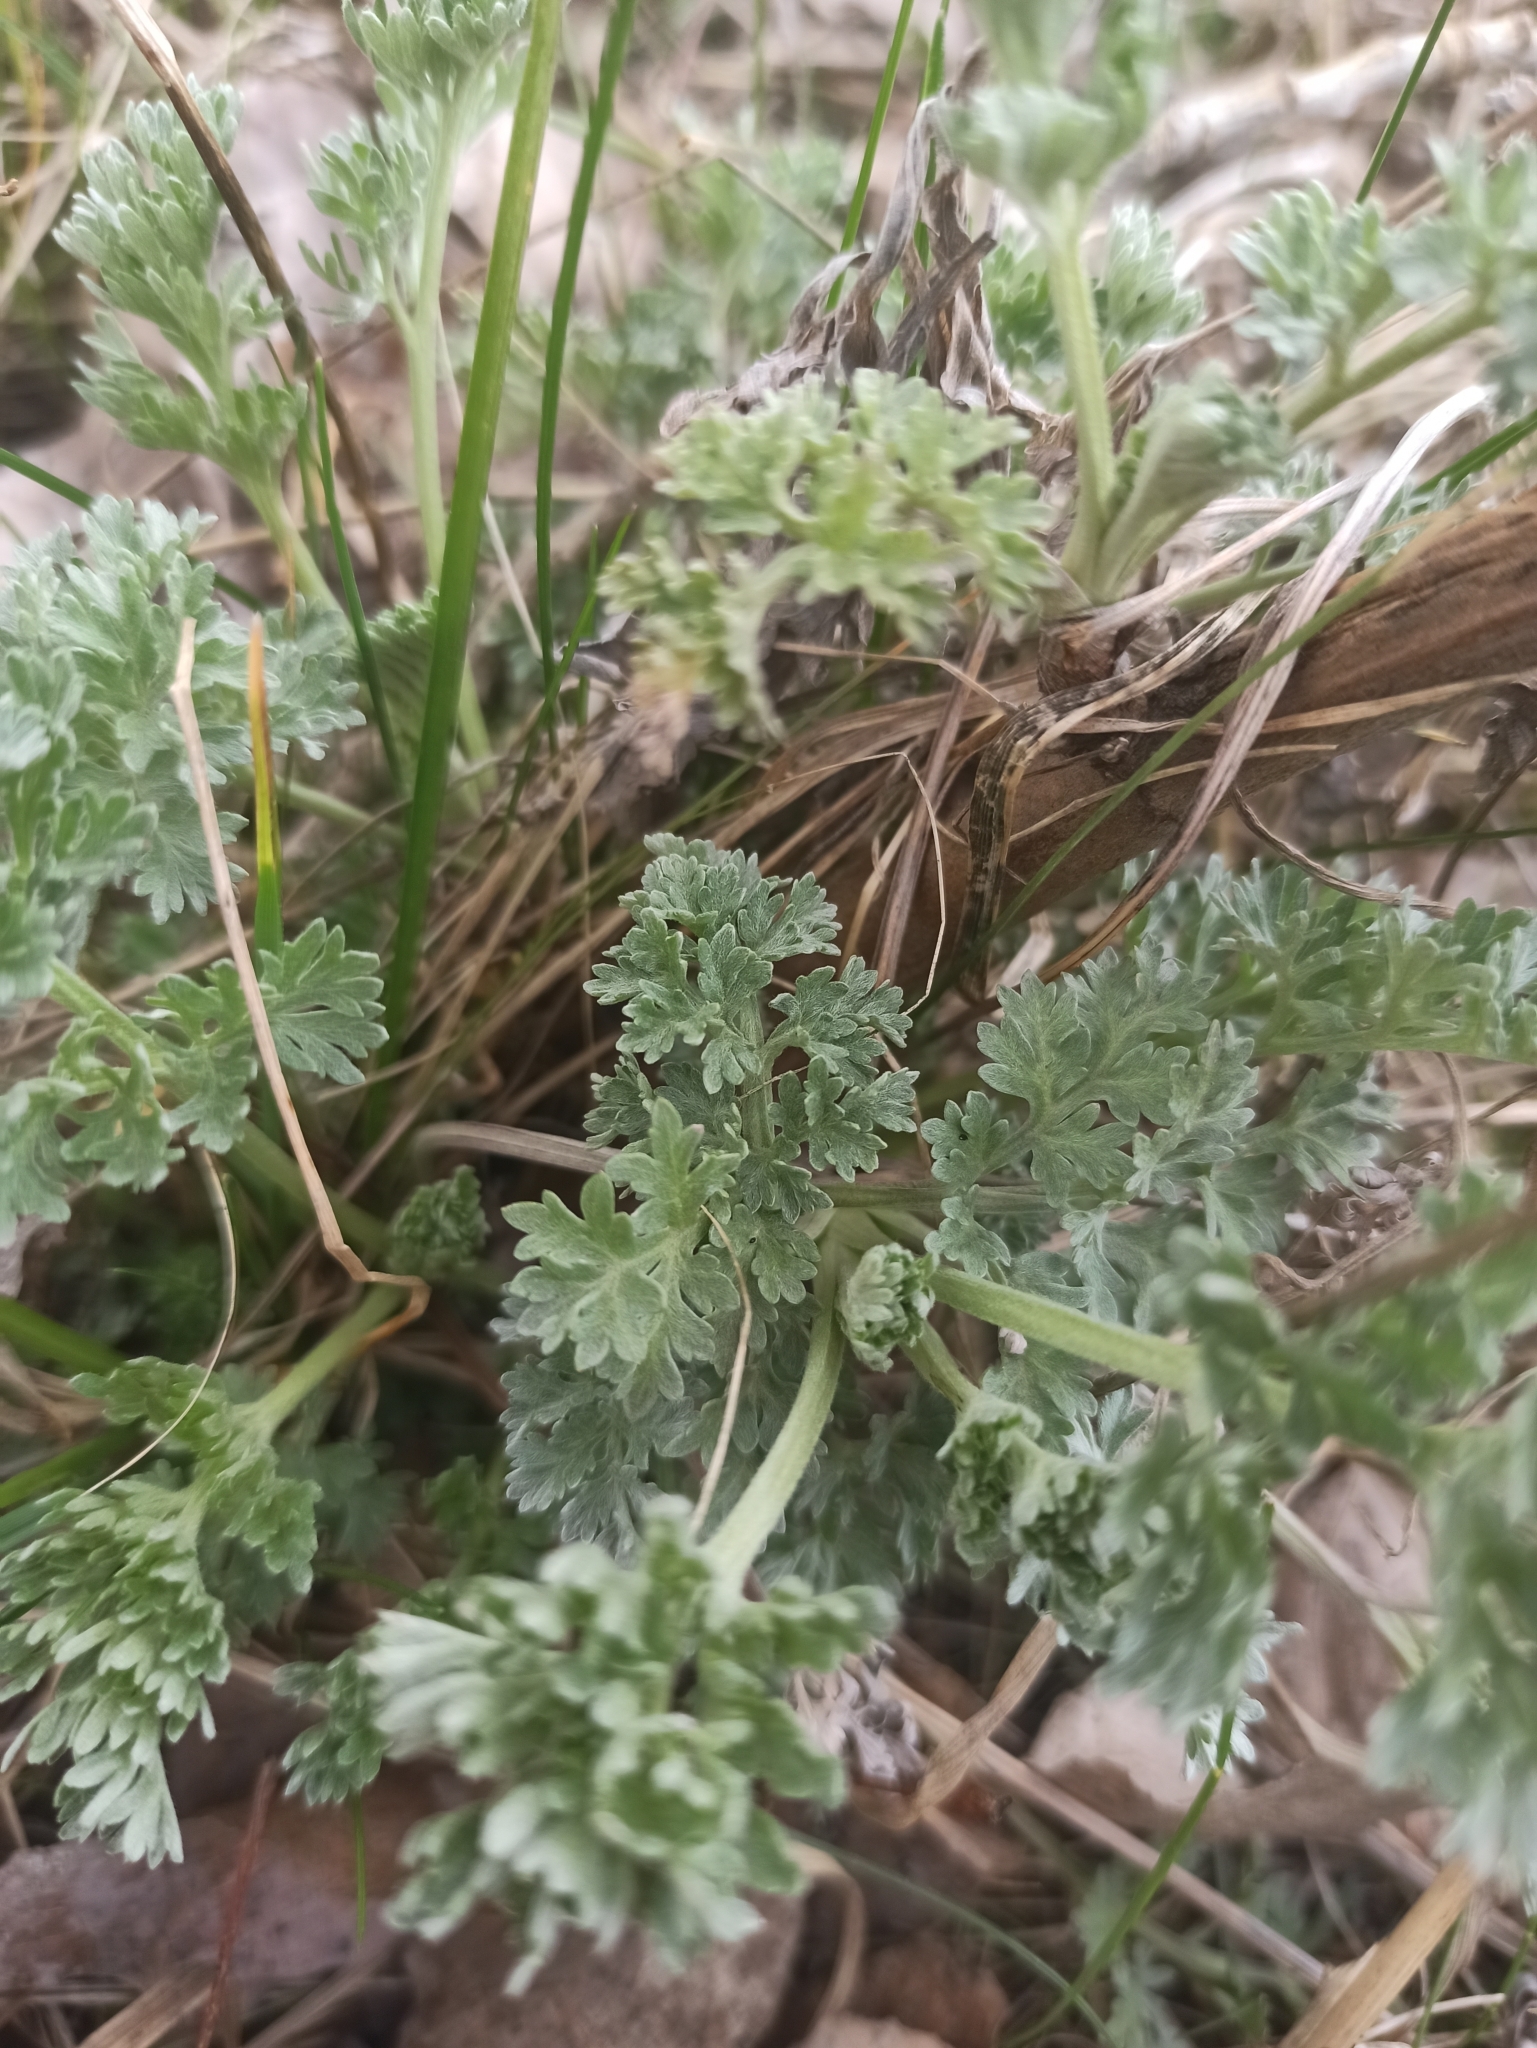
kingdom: Plantae
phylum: Tracheophyta
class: Magnoliopsida
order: Asterales
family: Asteraceae
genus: Artemisia
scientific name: Artemisia absinthium
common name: Wormwood
